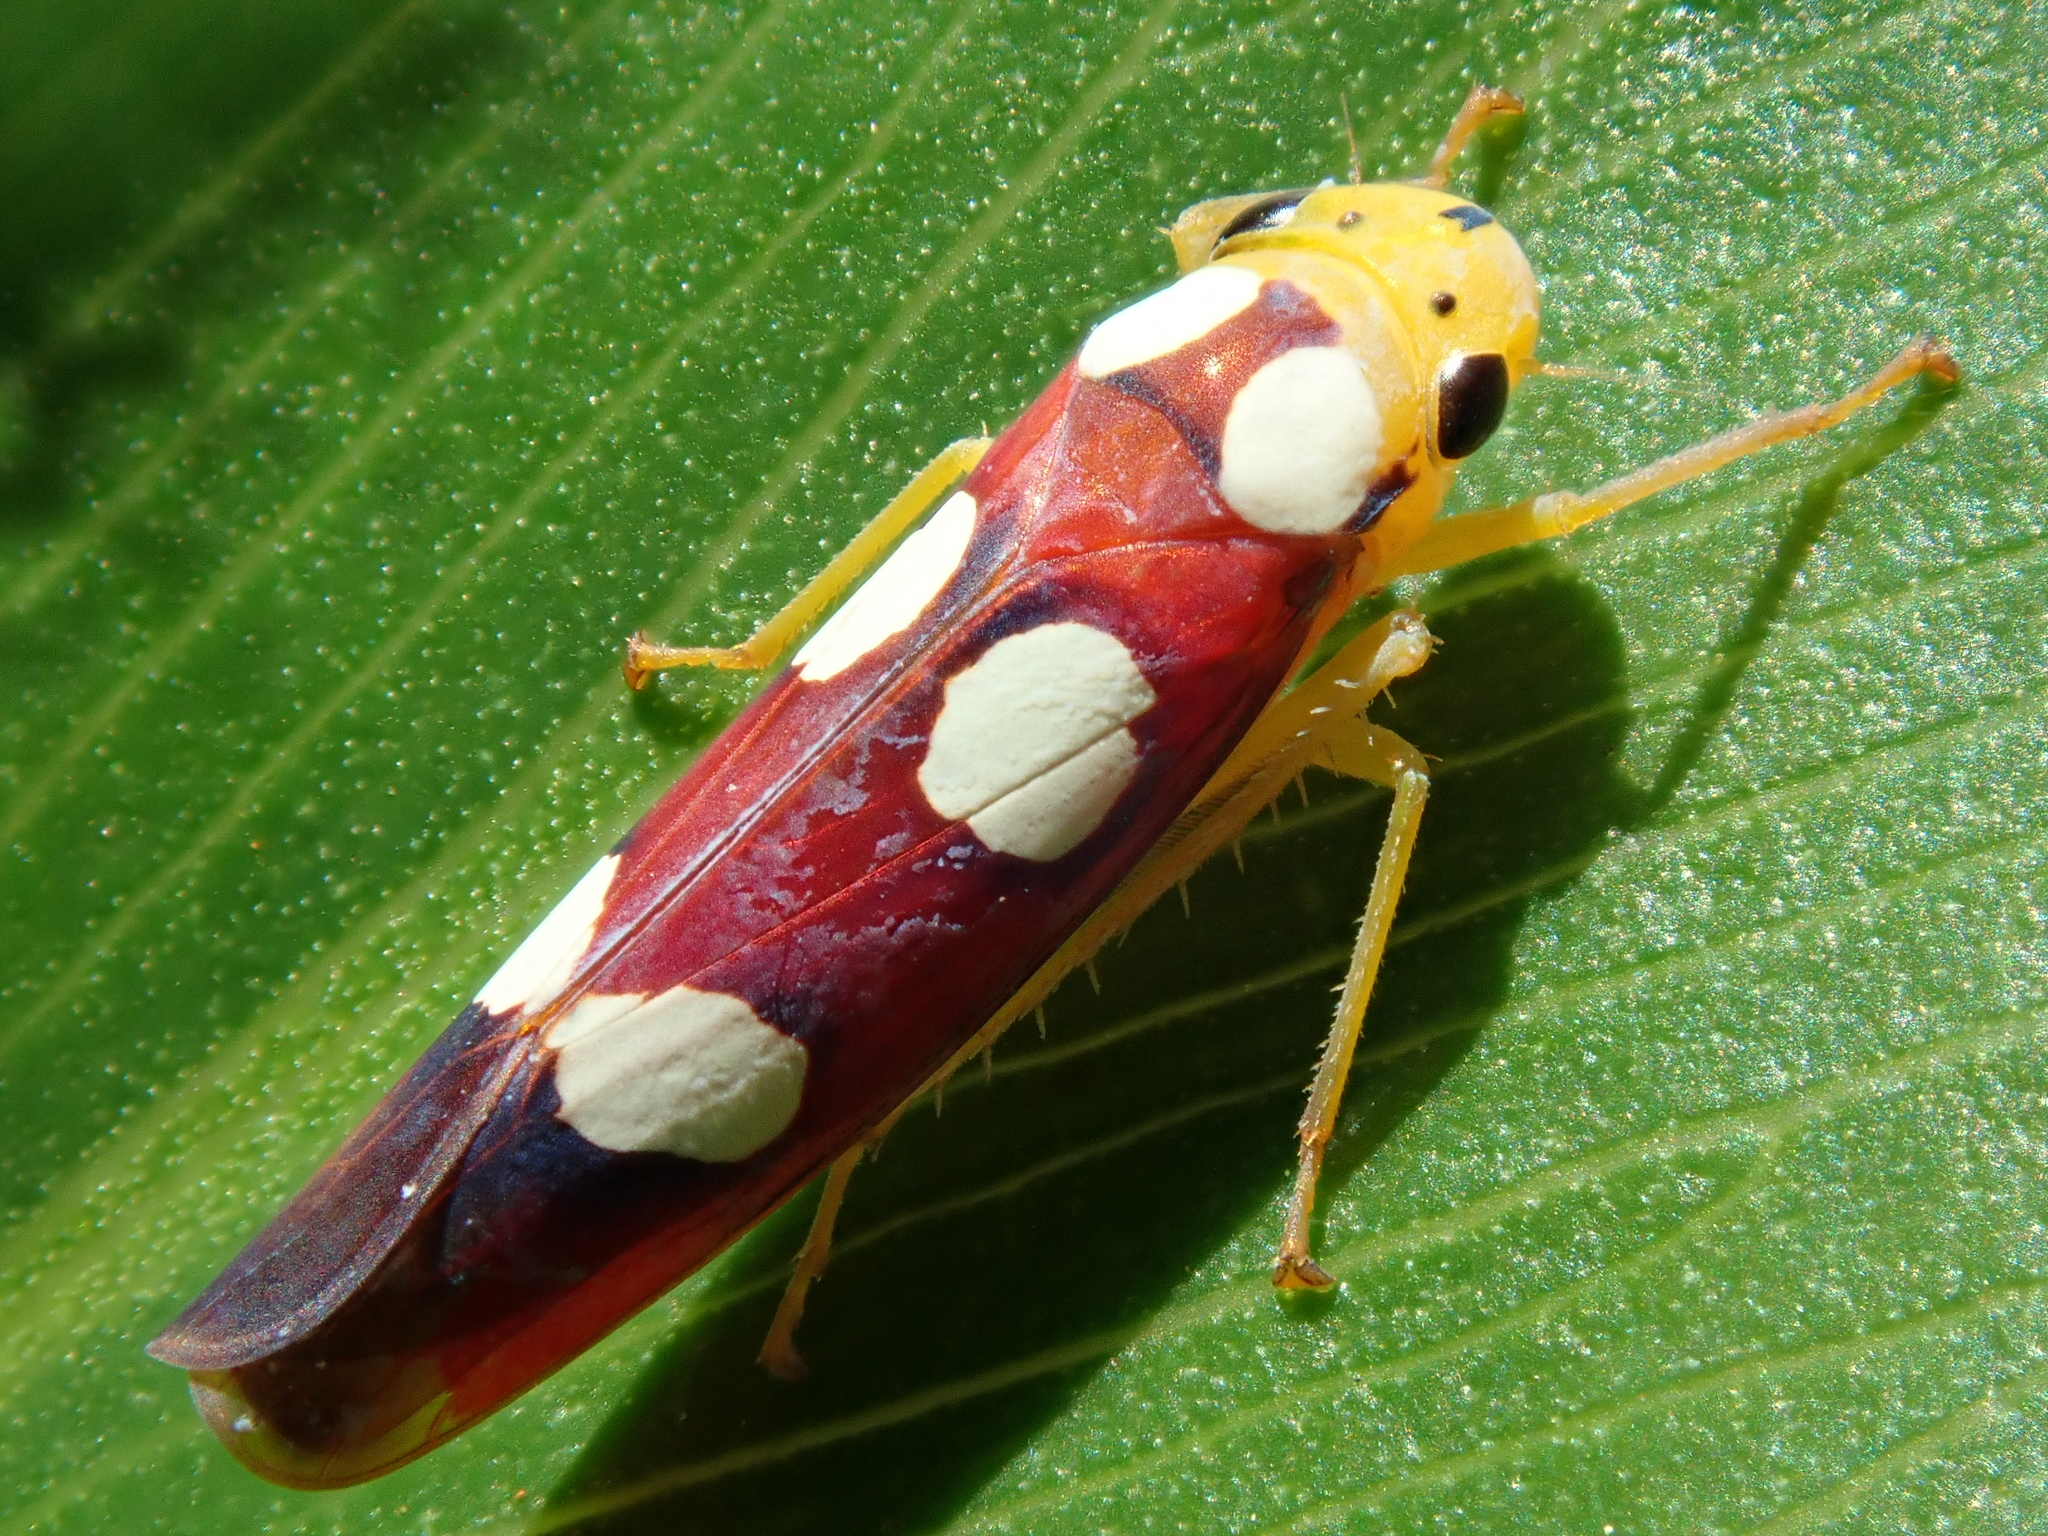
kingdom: Animalia
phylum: Arthropoda
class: Insecta
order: Hemiptera
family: Cicadellidae
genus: Tettisama
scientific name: Tettisama quinquemaculata
